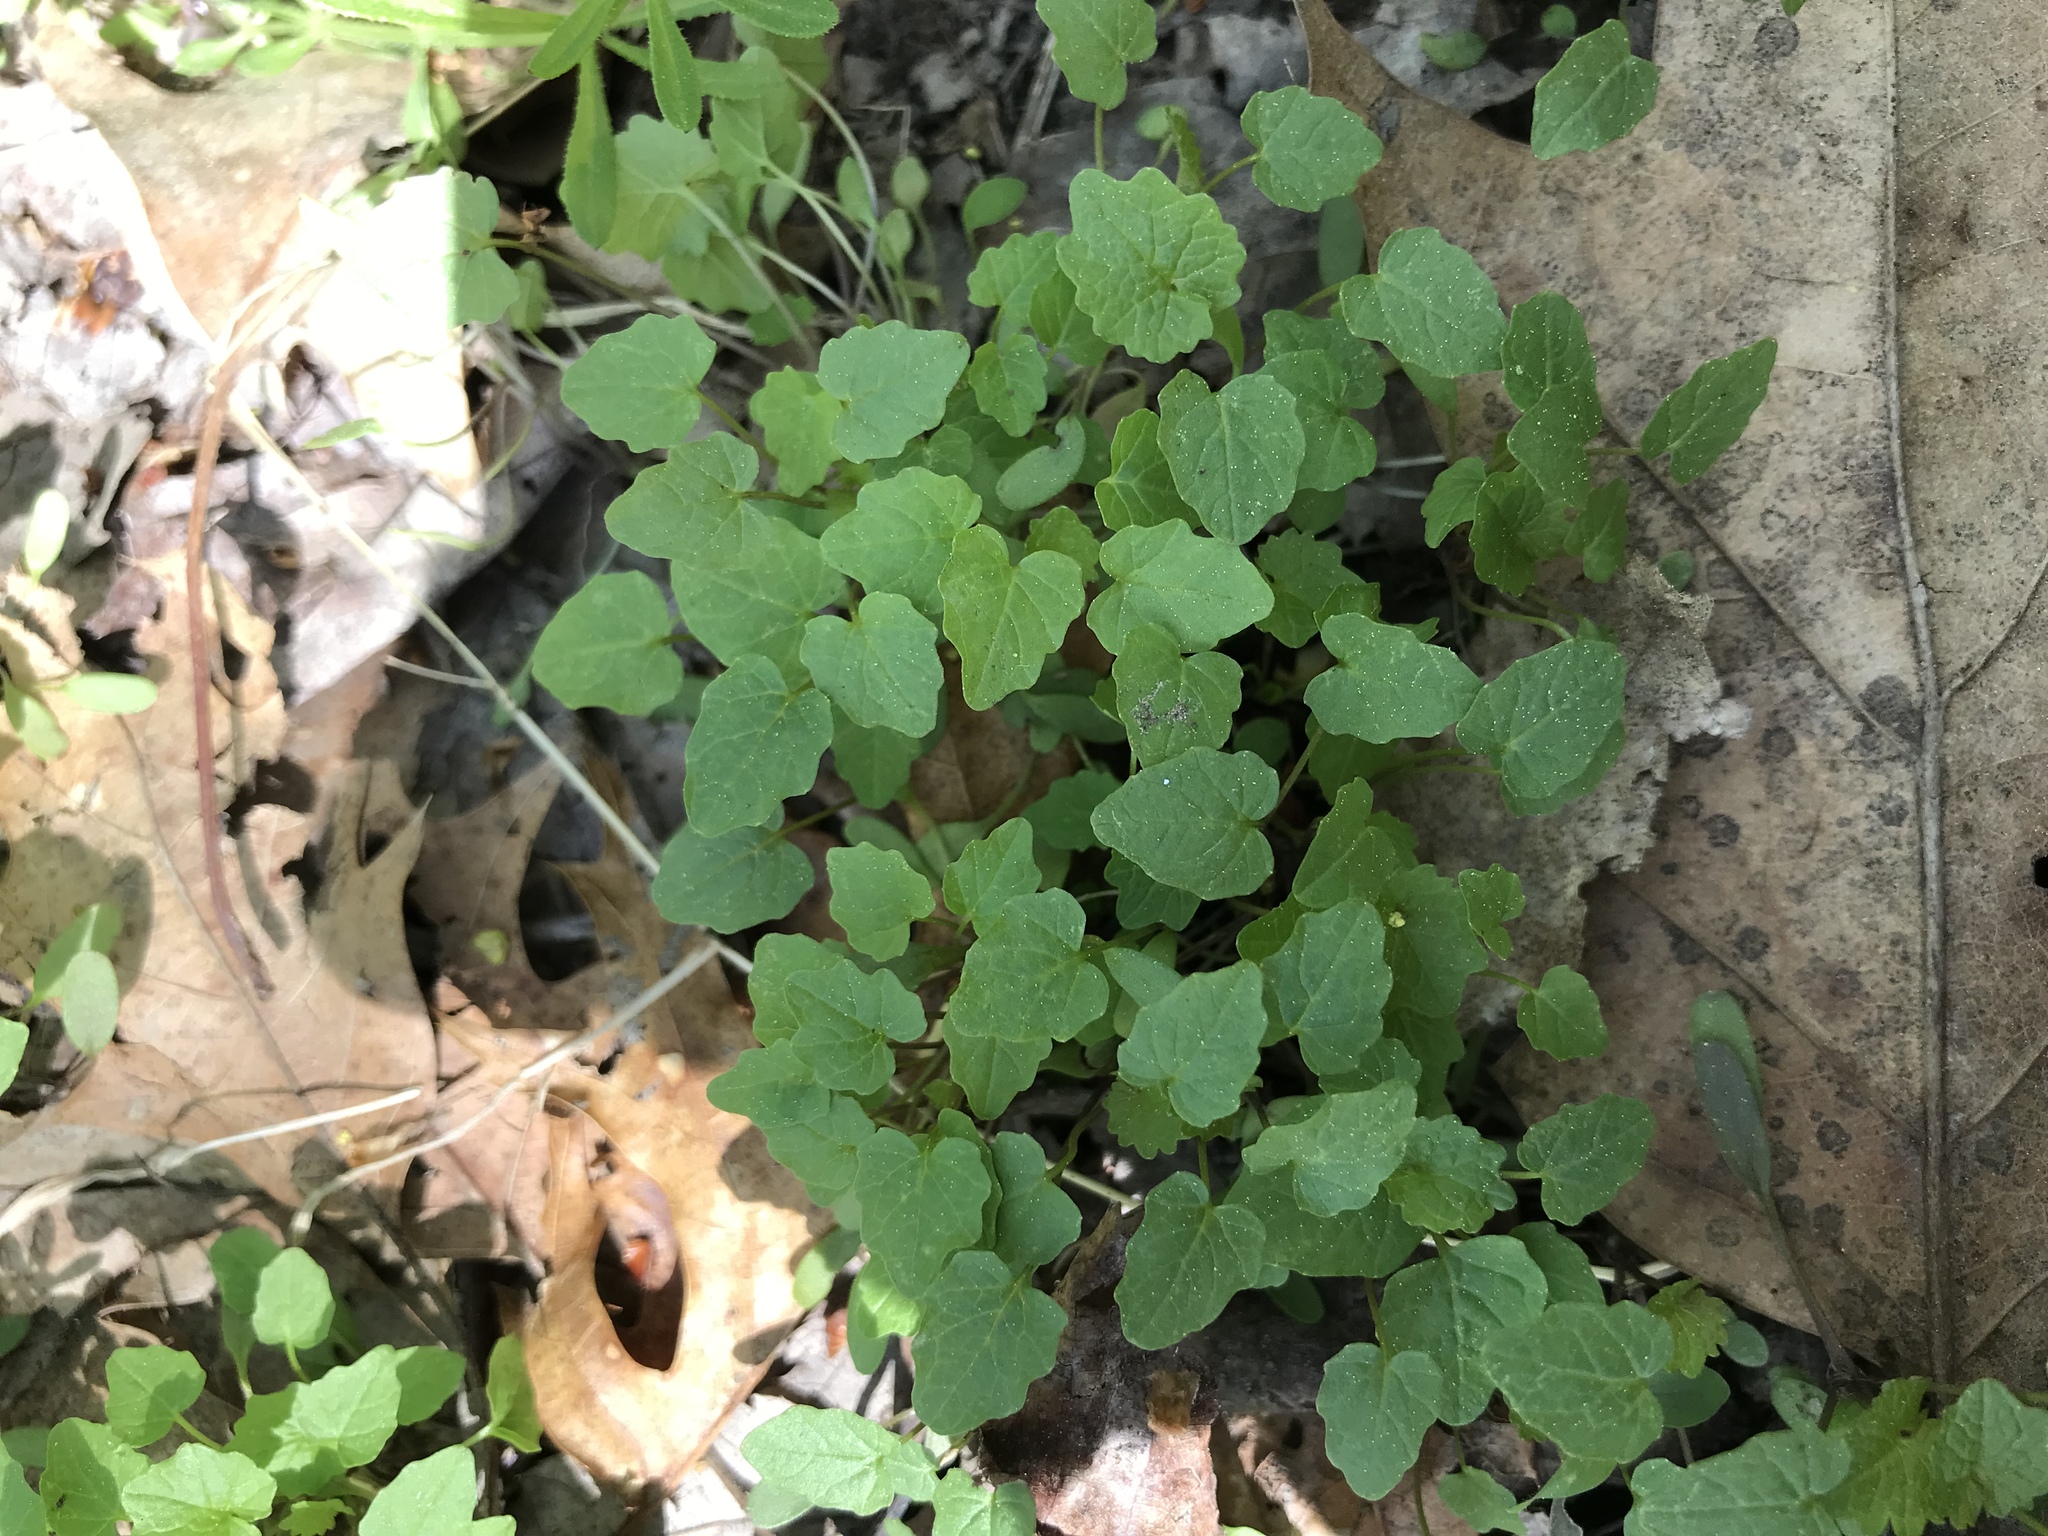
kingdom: Plantae
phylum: Tracheophyta
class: Magnoliopsida
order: Brassicales
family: Brassicaceae
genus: Alliaria
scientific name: Alliaria petiolata
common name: Garlic mustard
